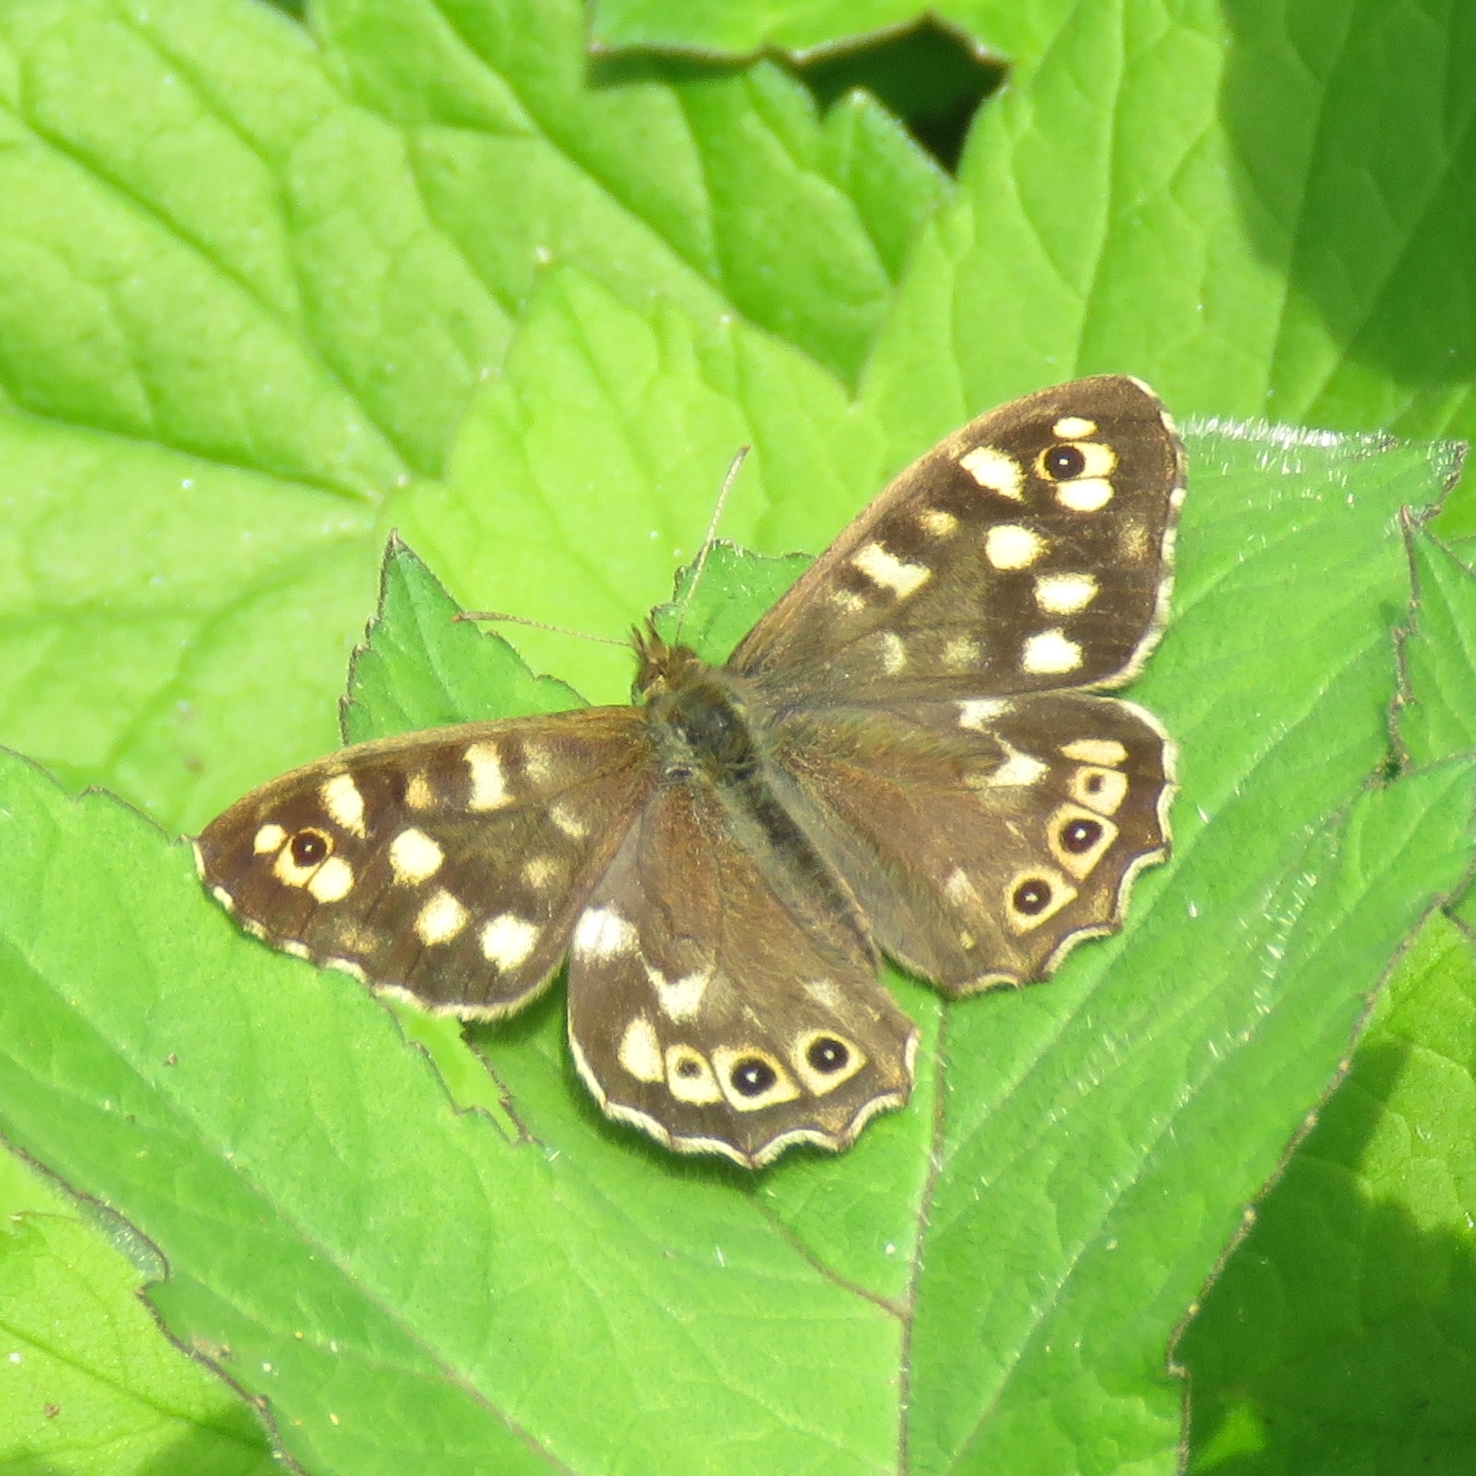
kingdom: Animalia
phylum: Arthropoda
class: Insecta
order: Lepidoptera
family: Nymphalidae
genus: Pararge
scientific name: Pararge aegeria
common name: Speckled wood
